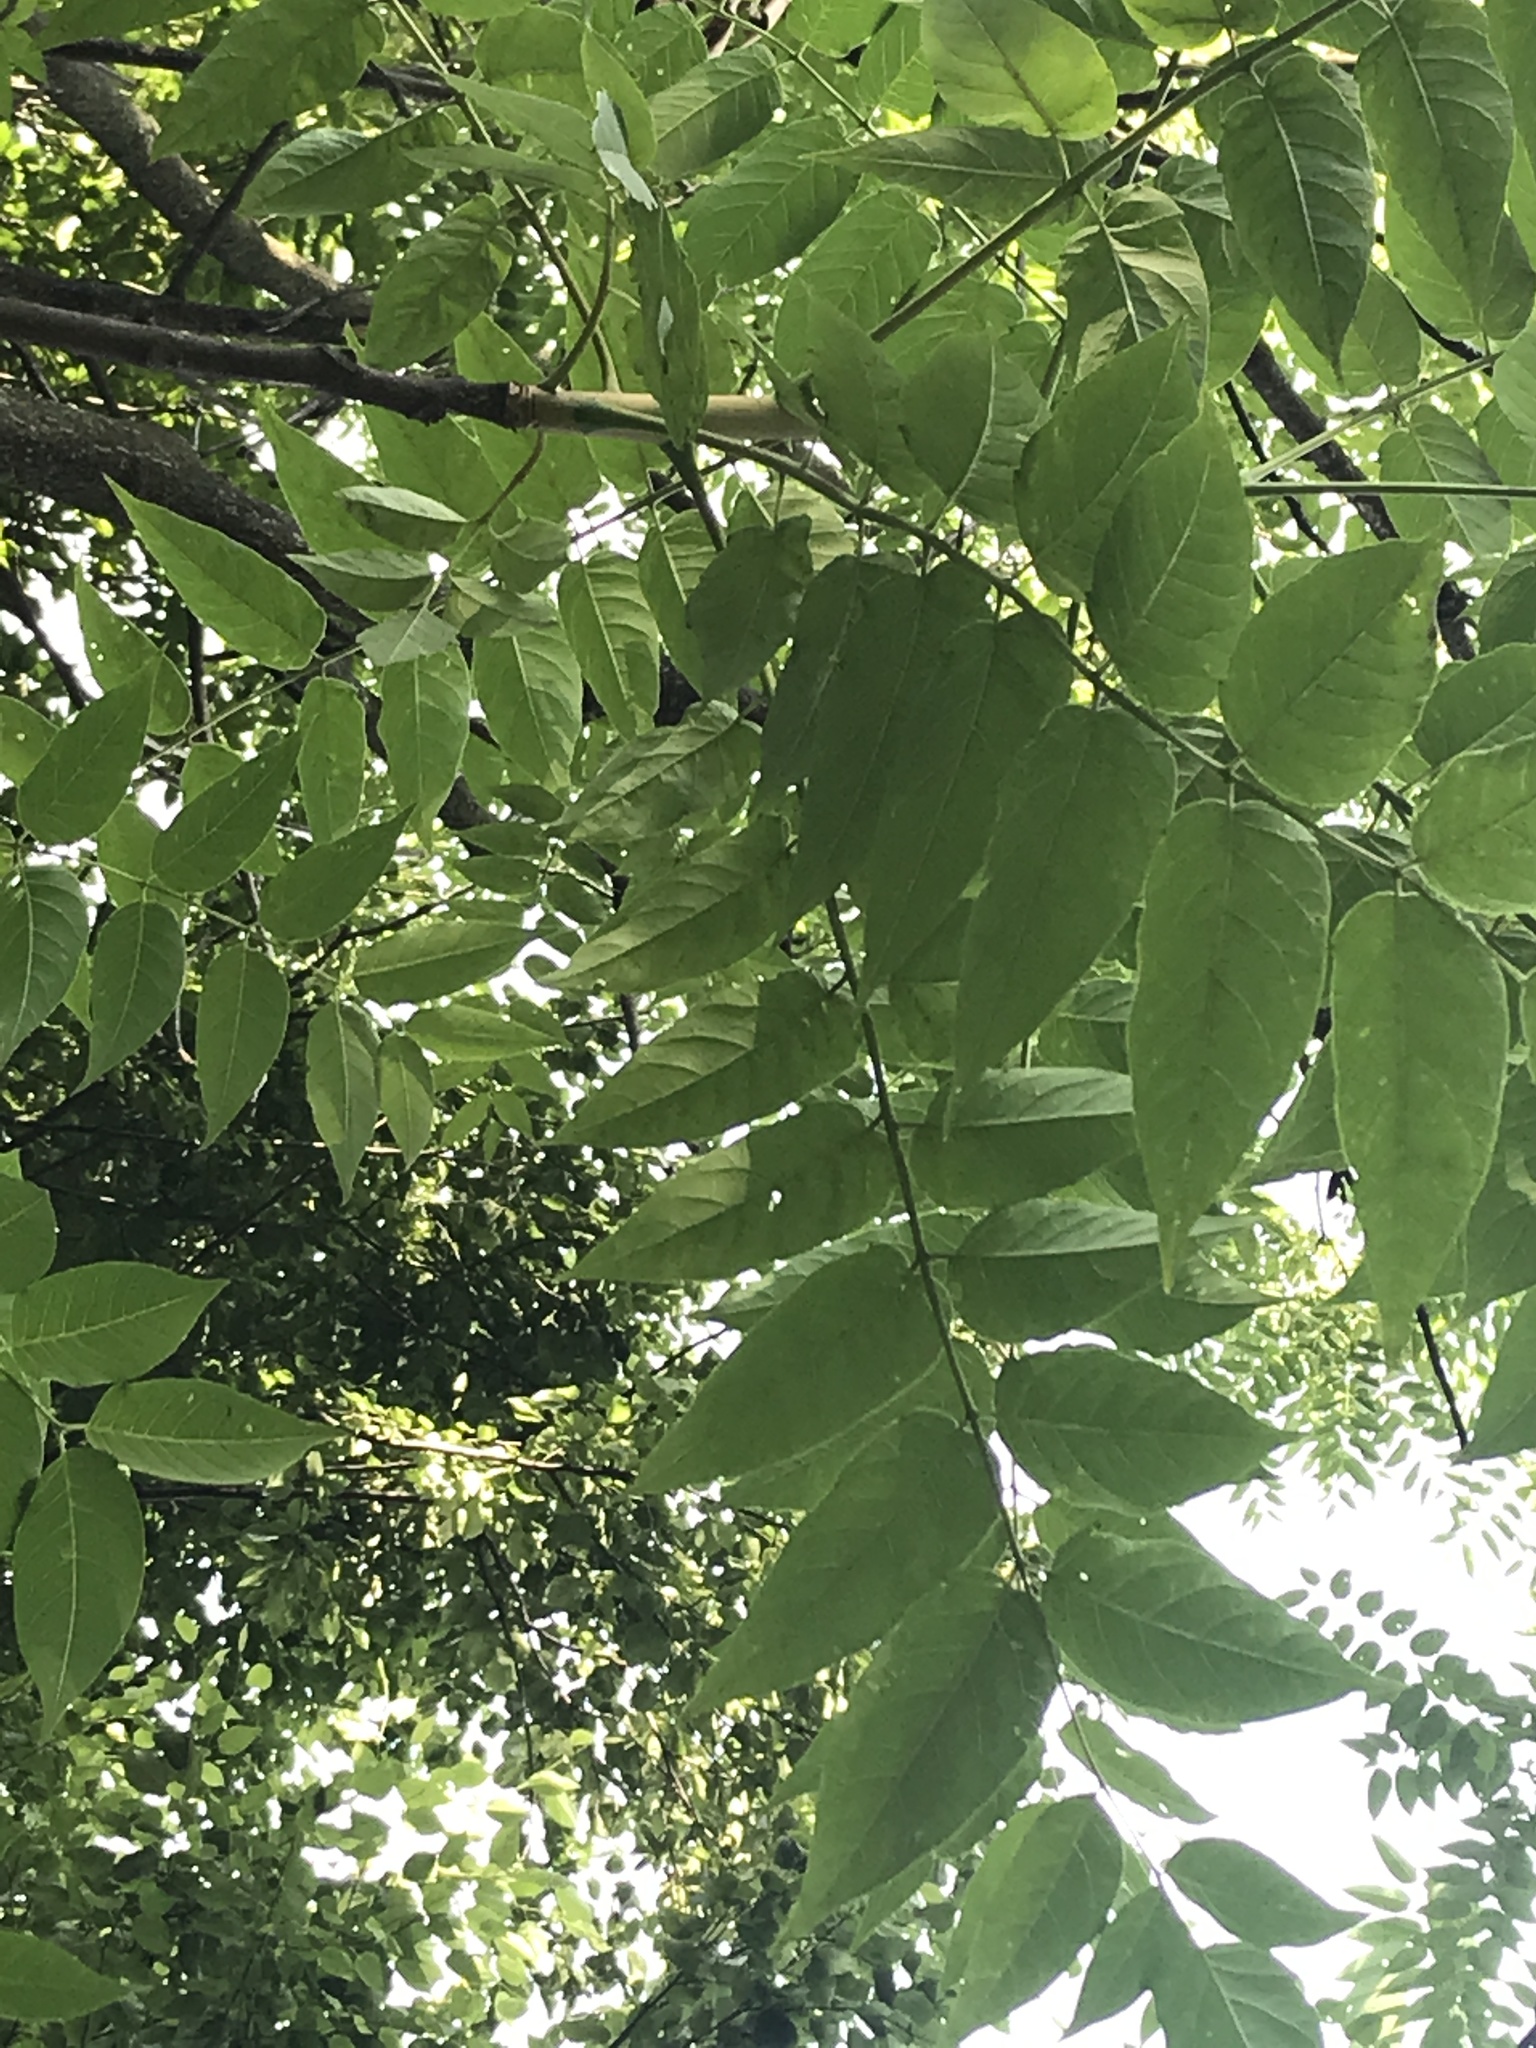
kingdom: Plantae
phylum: Tracheophyta
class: Magnoliopsida
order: Sapindales
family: Simaroubaceae
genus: Ailanthus
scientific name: Ailanthus altissima
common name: Tree-of-heaven
